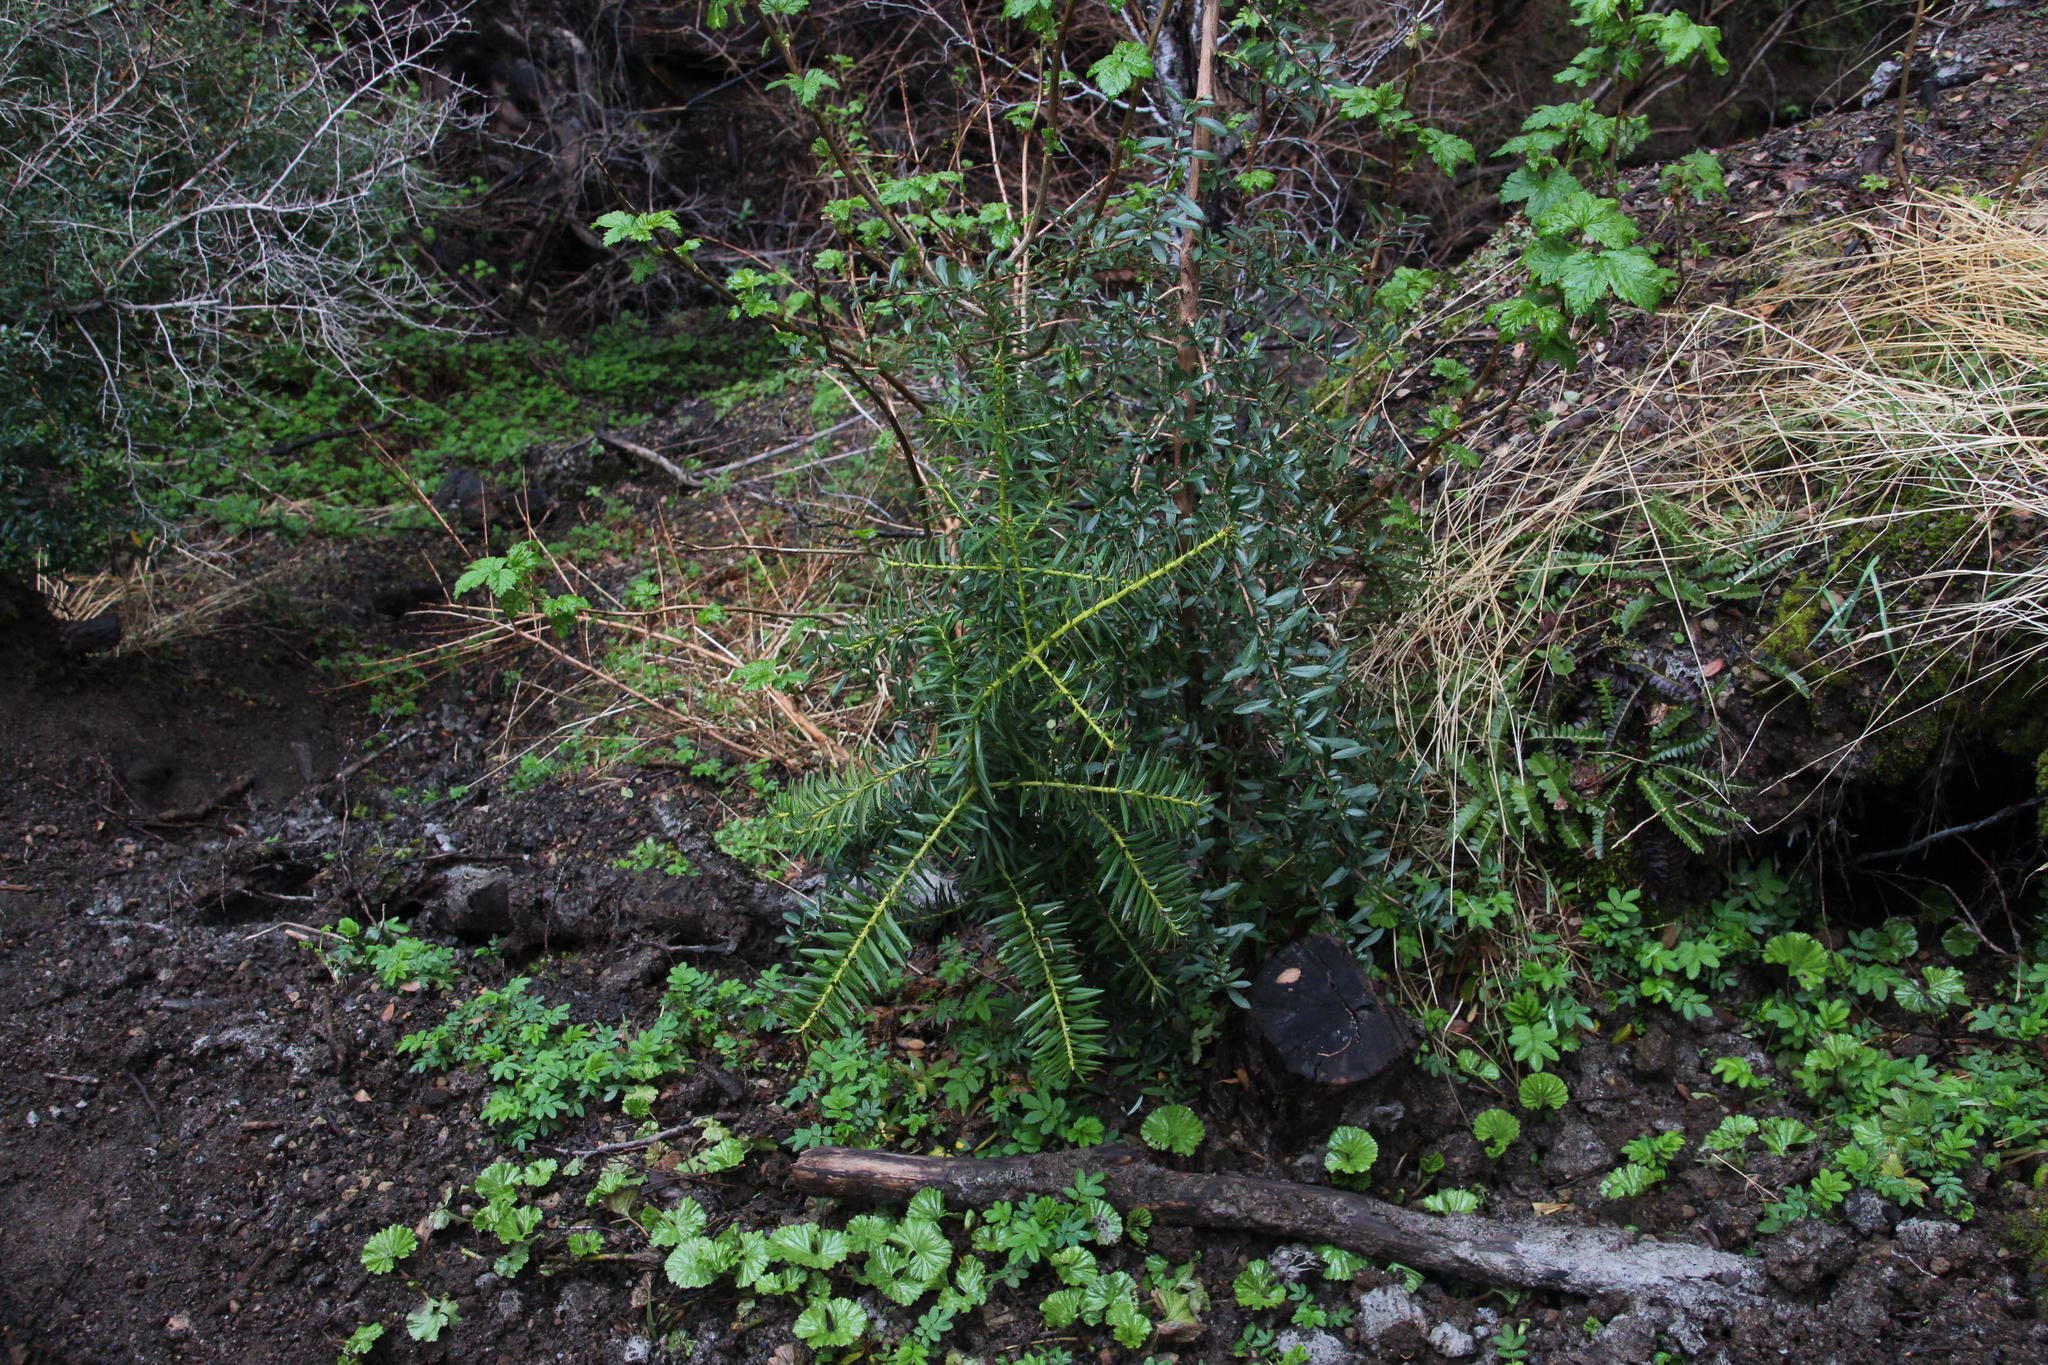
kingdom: Plantae
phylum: Tracheophyta
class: Pinopsida
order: Pinales
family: Podocarpaceae
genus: Podocarpus
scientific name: Podocarpus nubigenus
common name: Cloud podocarp
